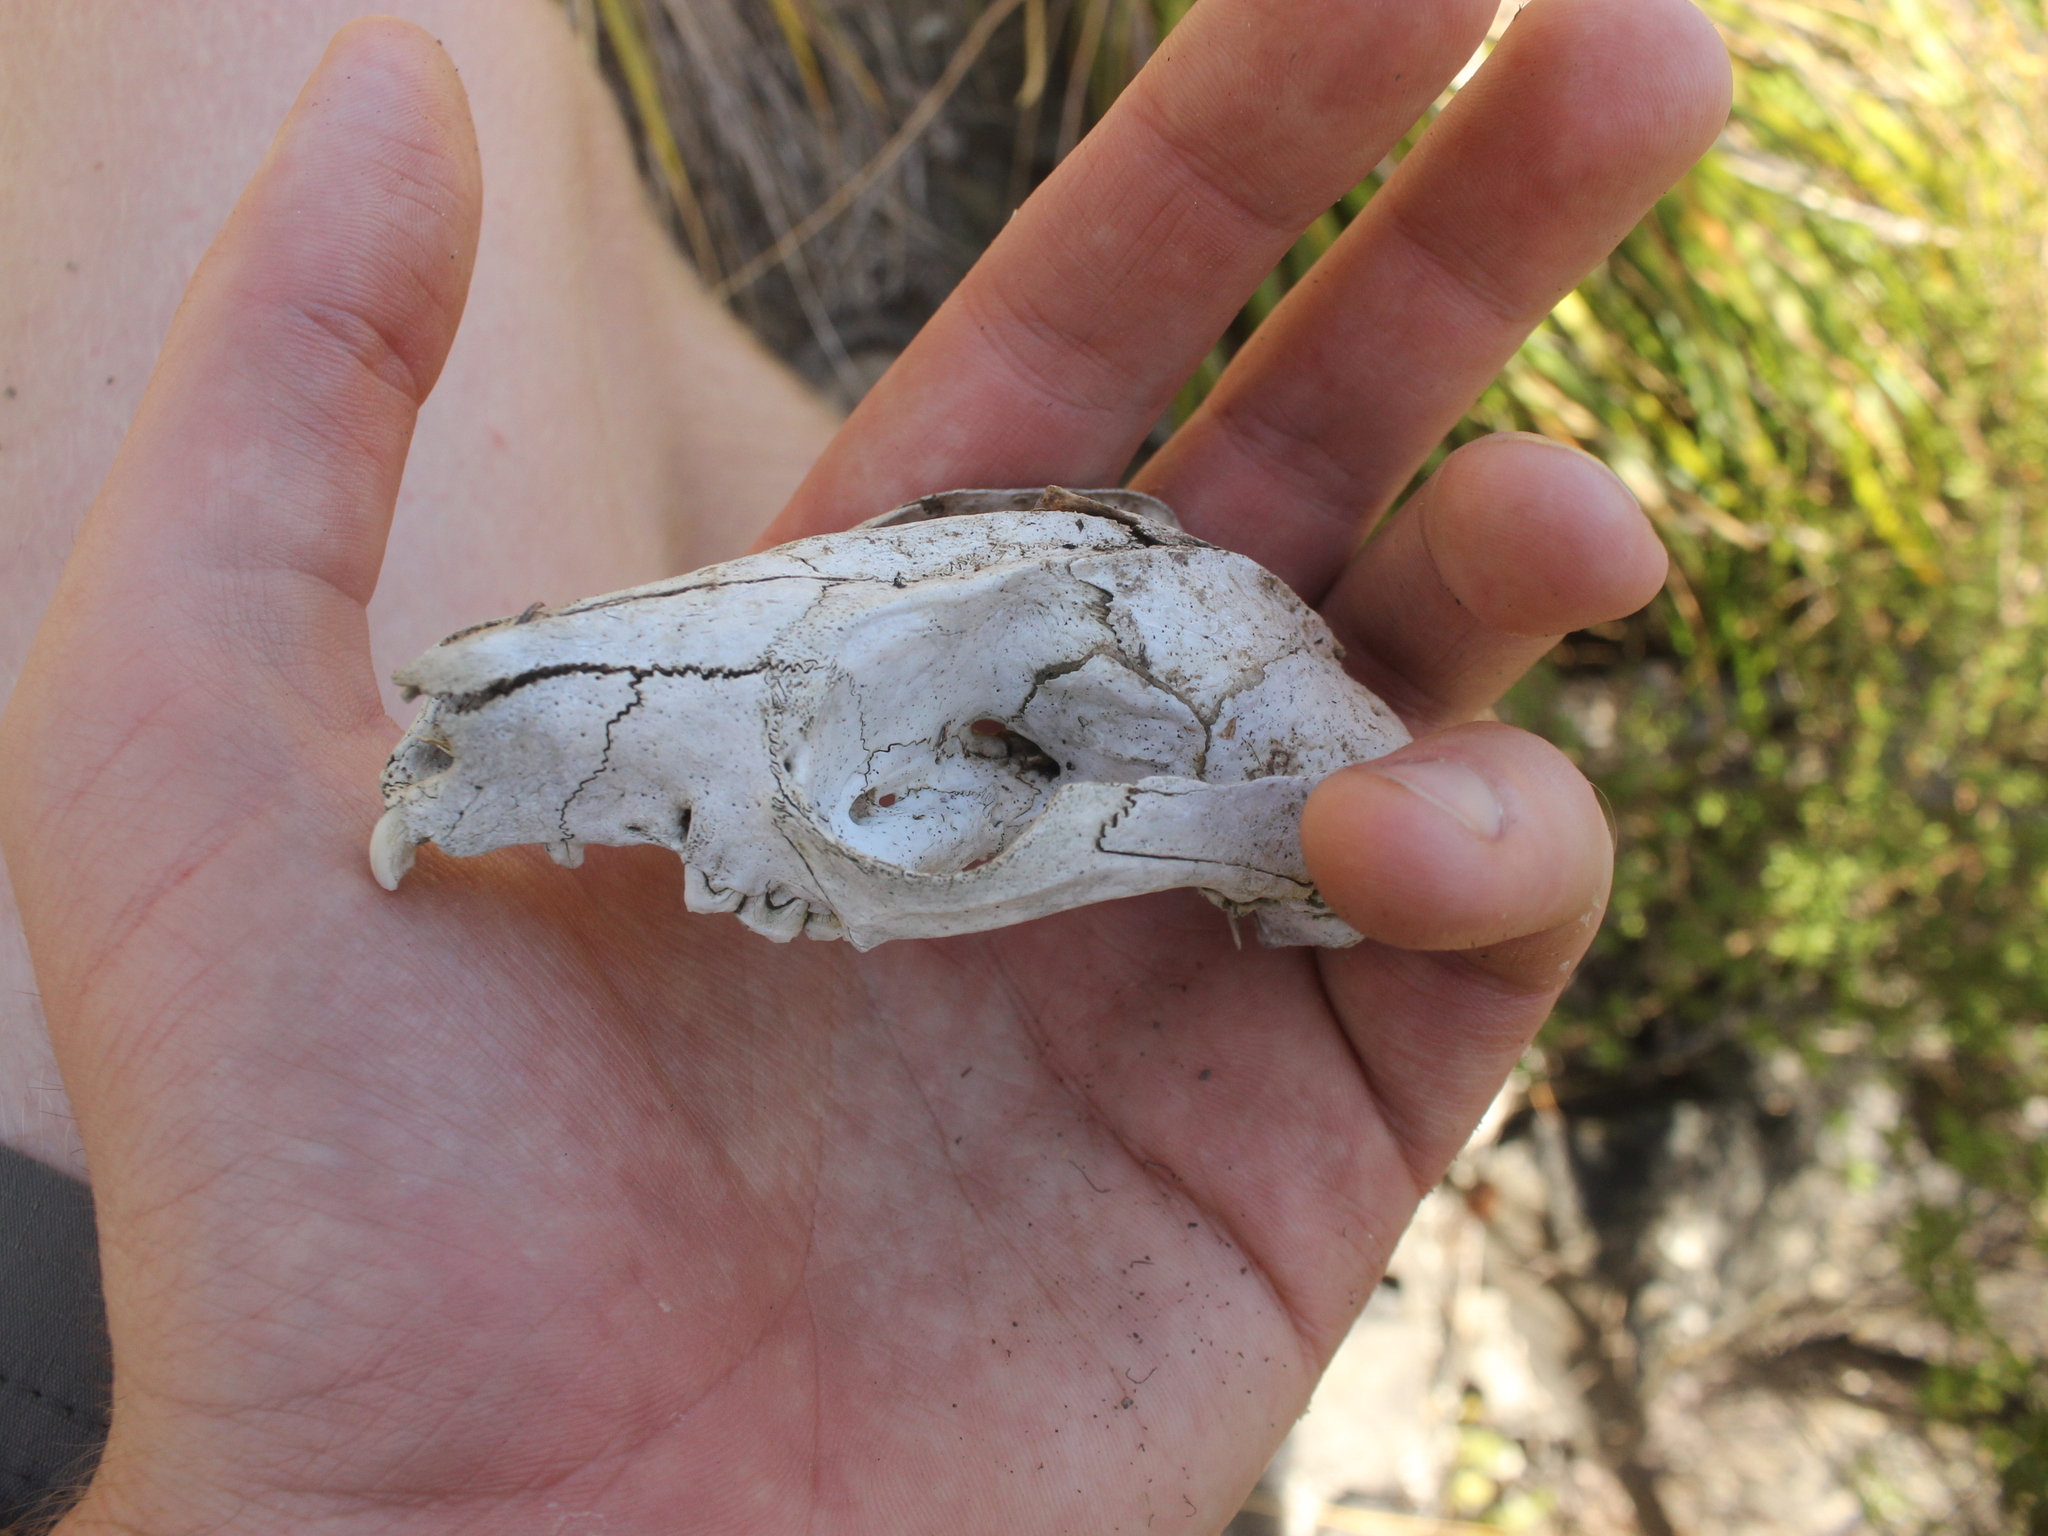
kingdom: Animalia
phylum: Chordata
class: Mammalia
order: Diprotodontia
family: Phalangeridae
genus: Trichosurus
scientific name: Trichosurus vulpecula
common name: Common brushtail
